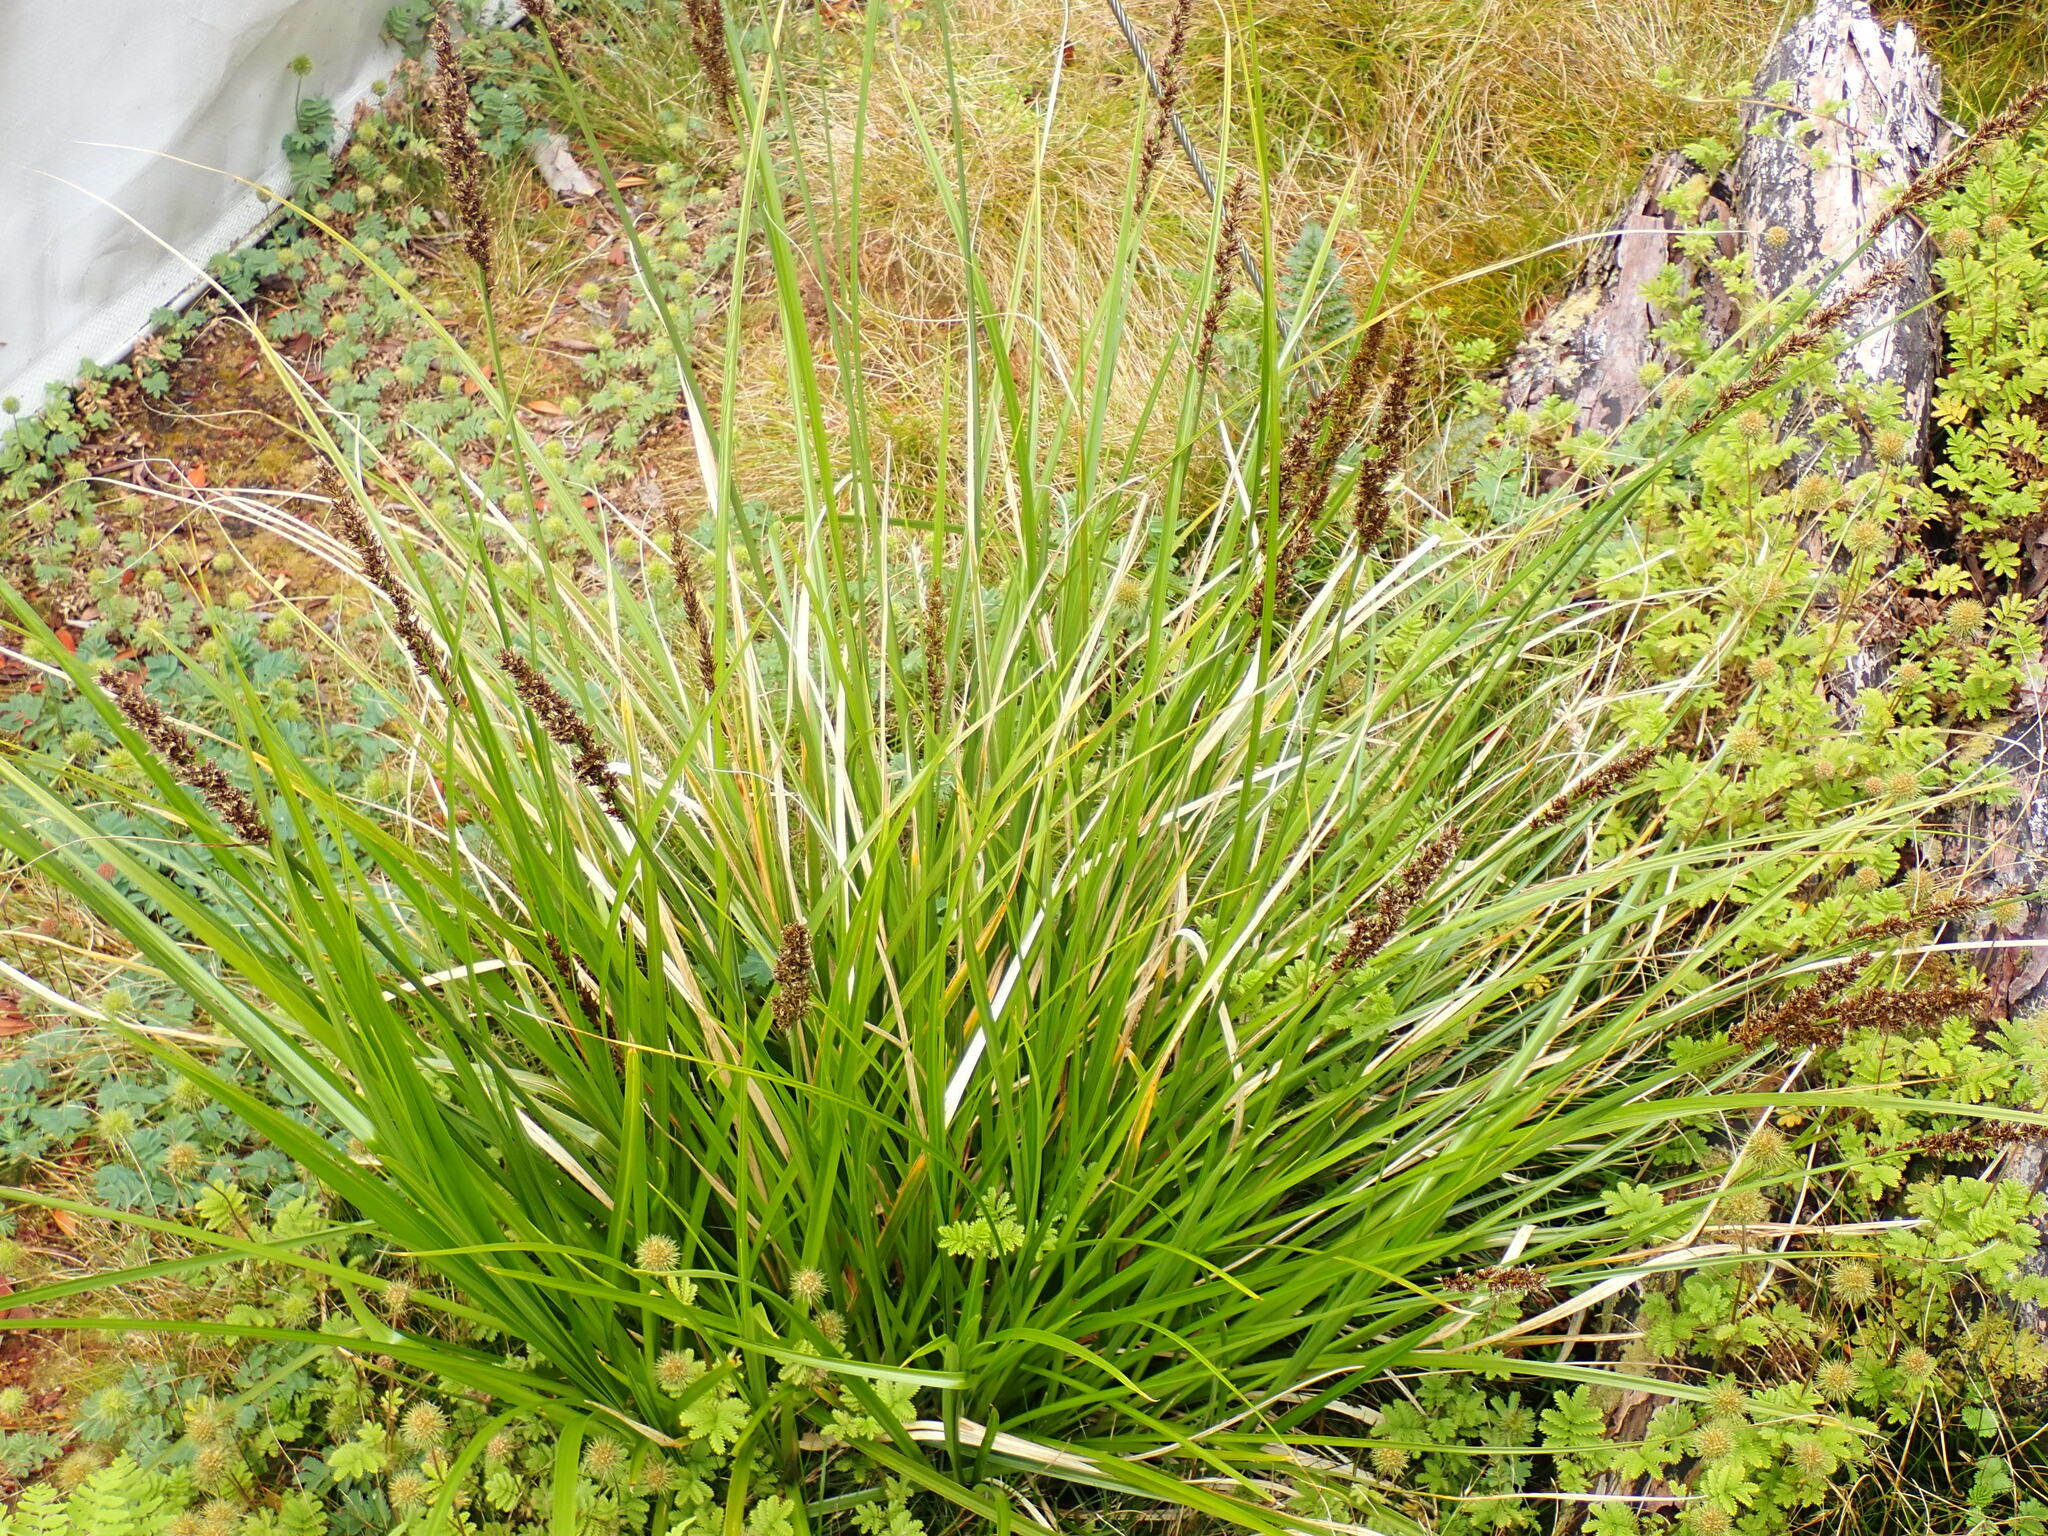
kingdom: Plantae
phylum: Tracheophyta
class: Liliopsida
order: Poales
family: Cyperaceae
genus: Carex
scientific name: Carex appressa
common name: Tussock sedge
